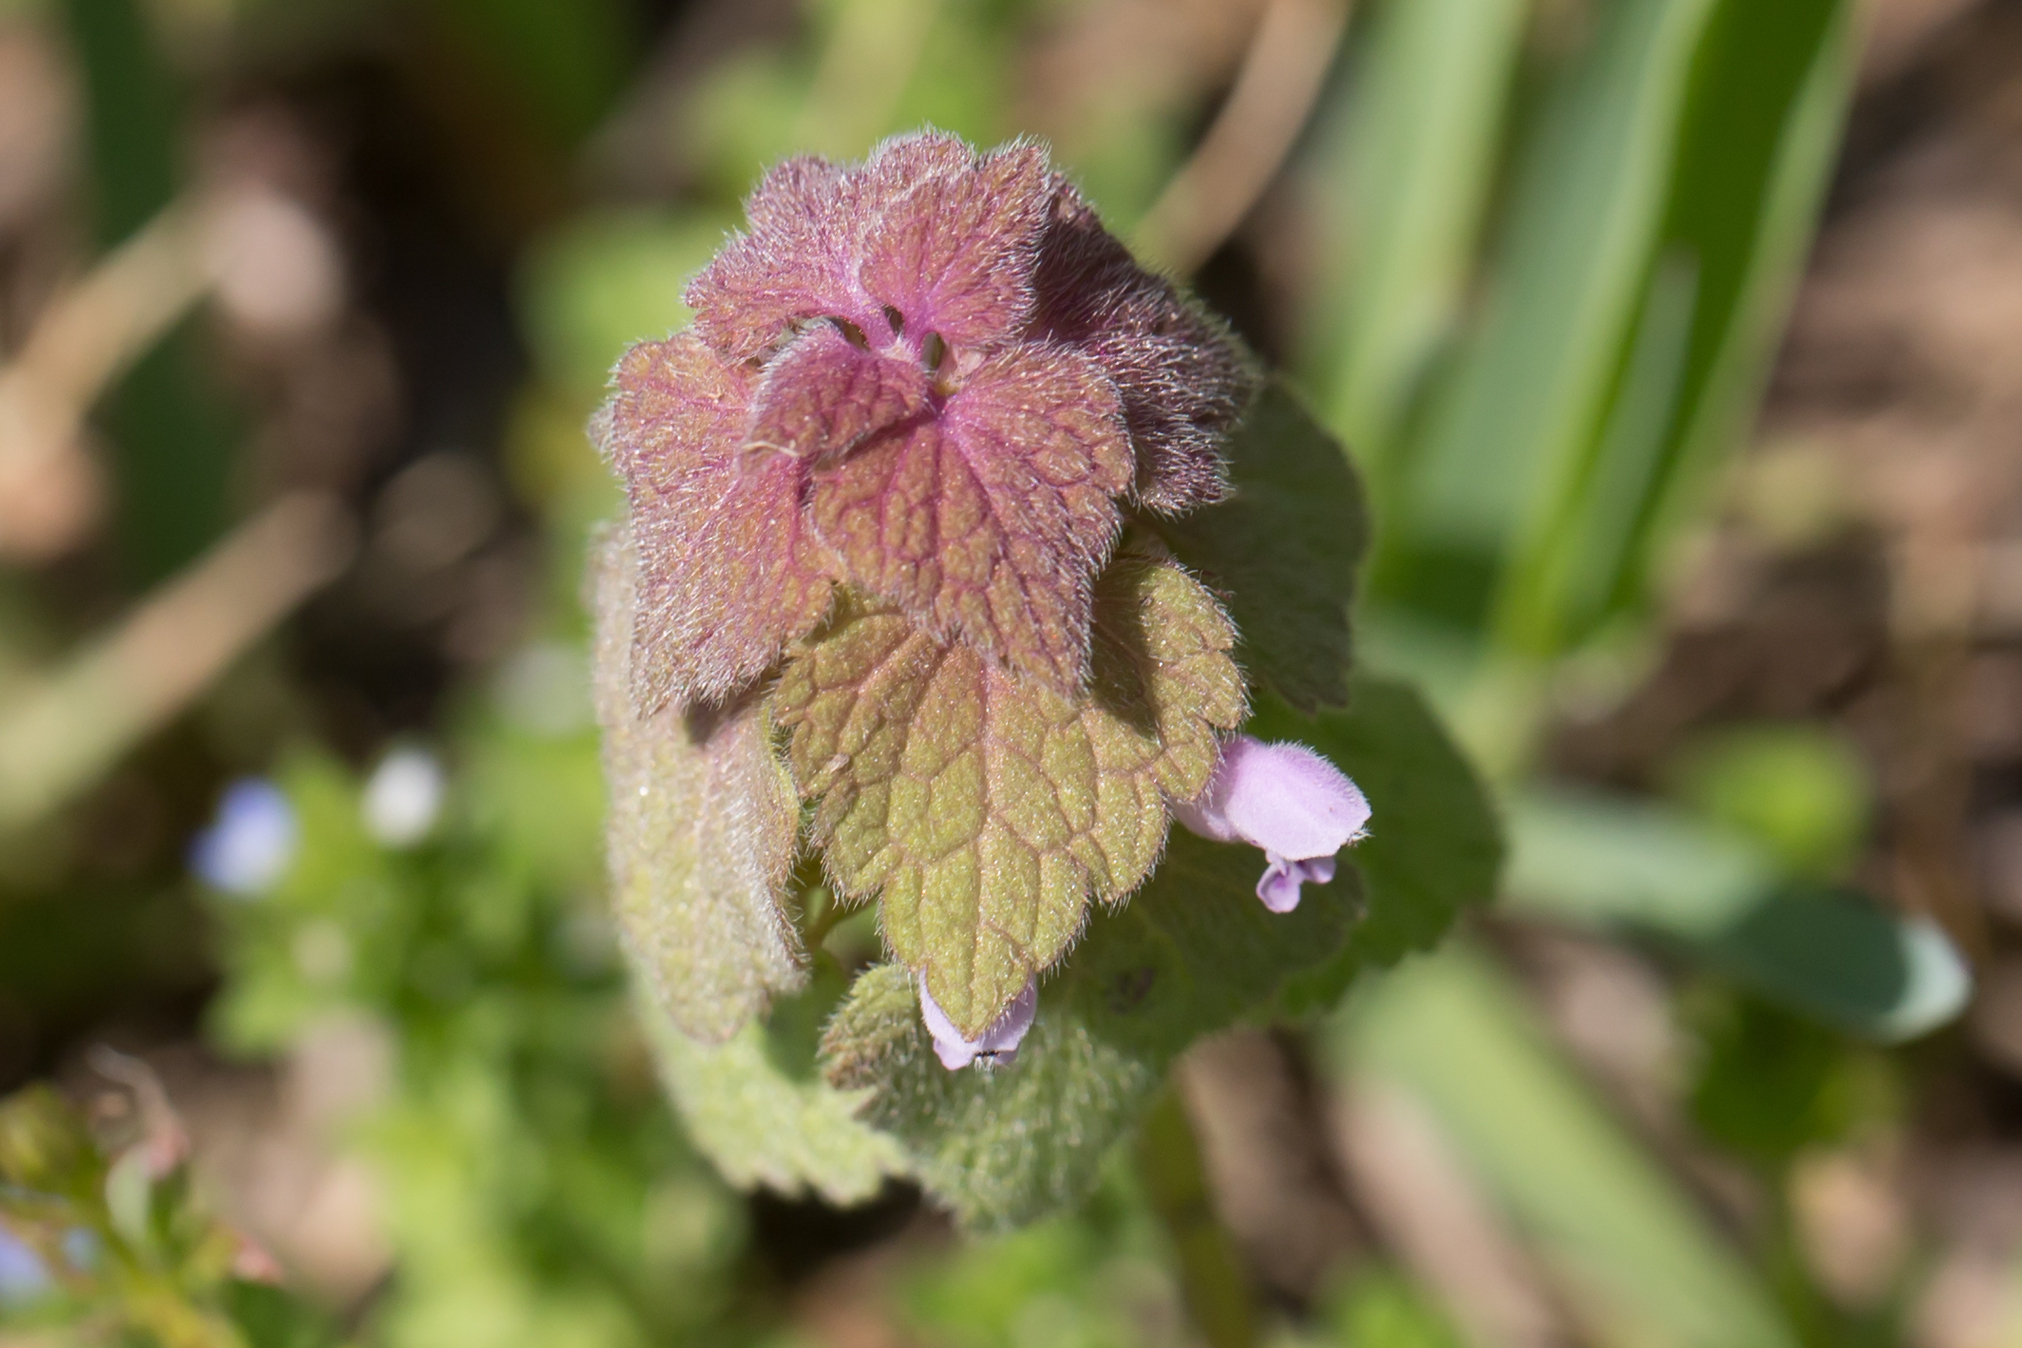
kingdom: Plantae
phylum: Tracheophyta
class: Magnoliopsida
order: Lamiales
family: Lamiaceae
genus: Lamium
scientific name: Lamium purpureum
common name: Red dead-nettle
